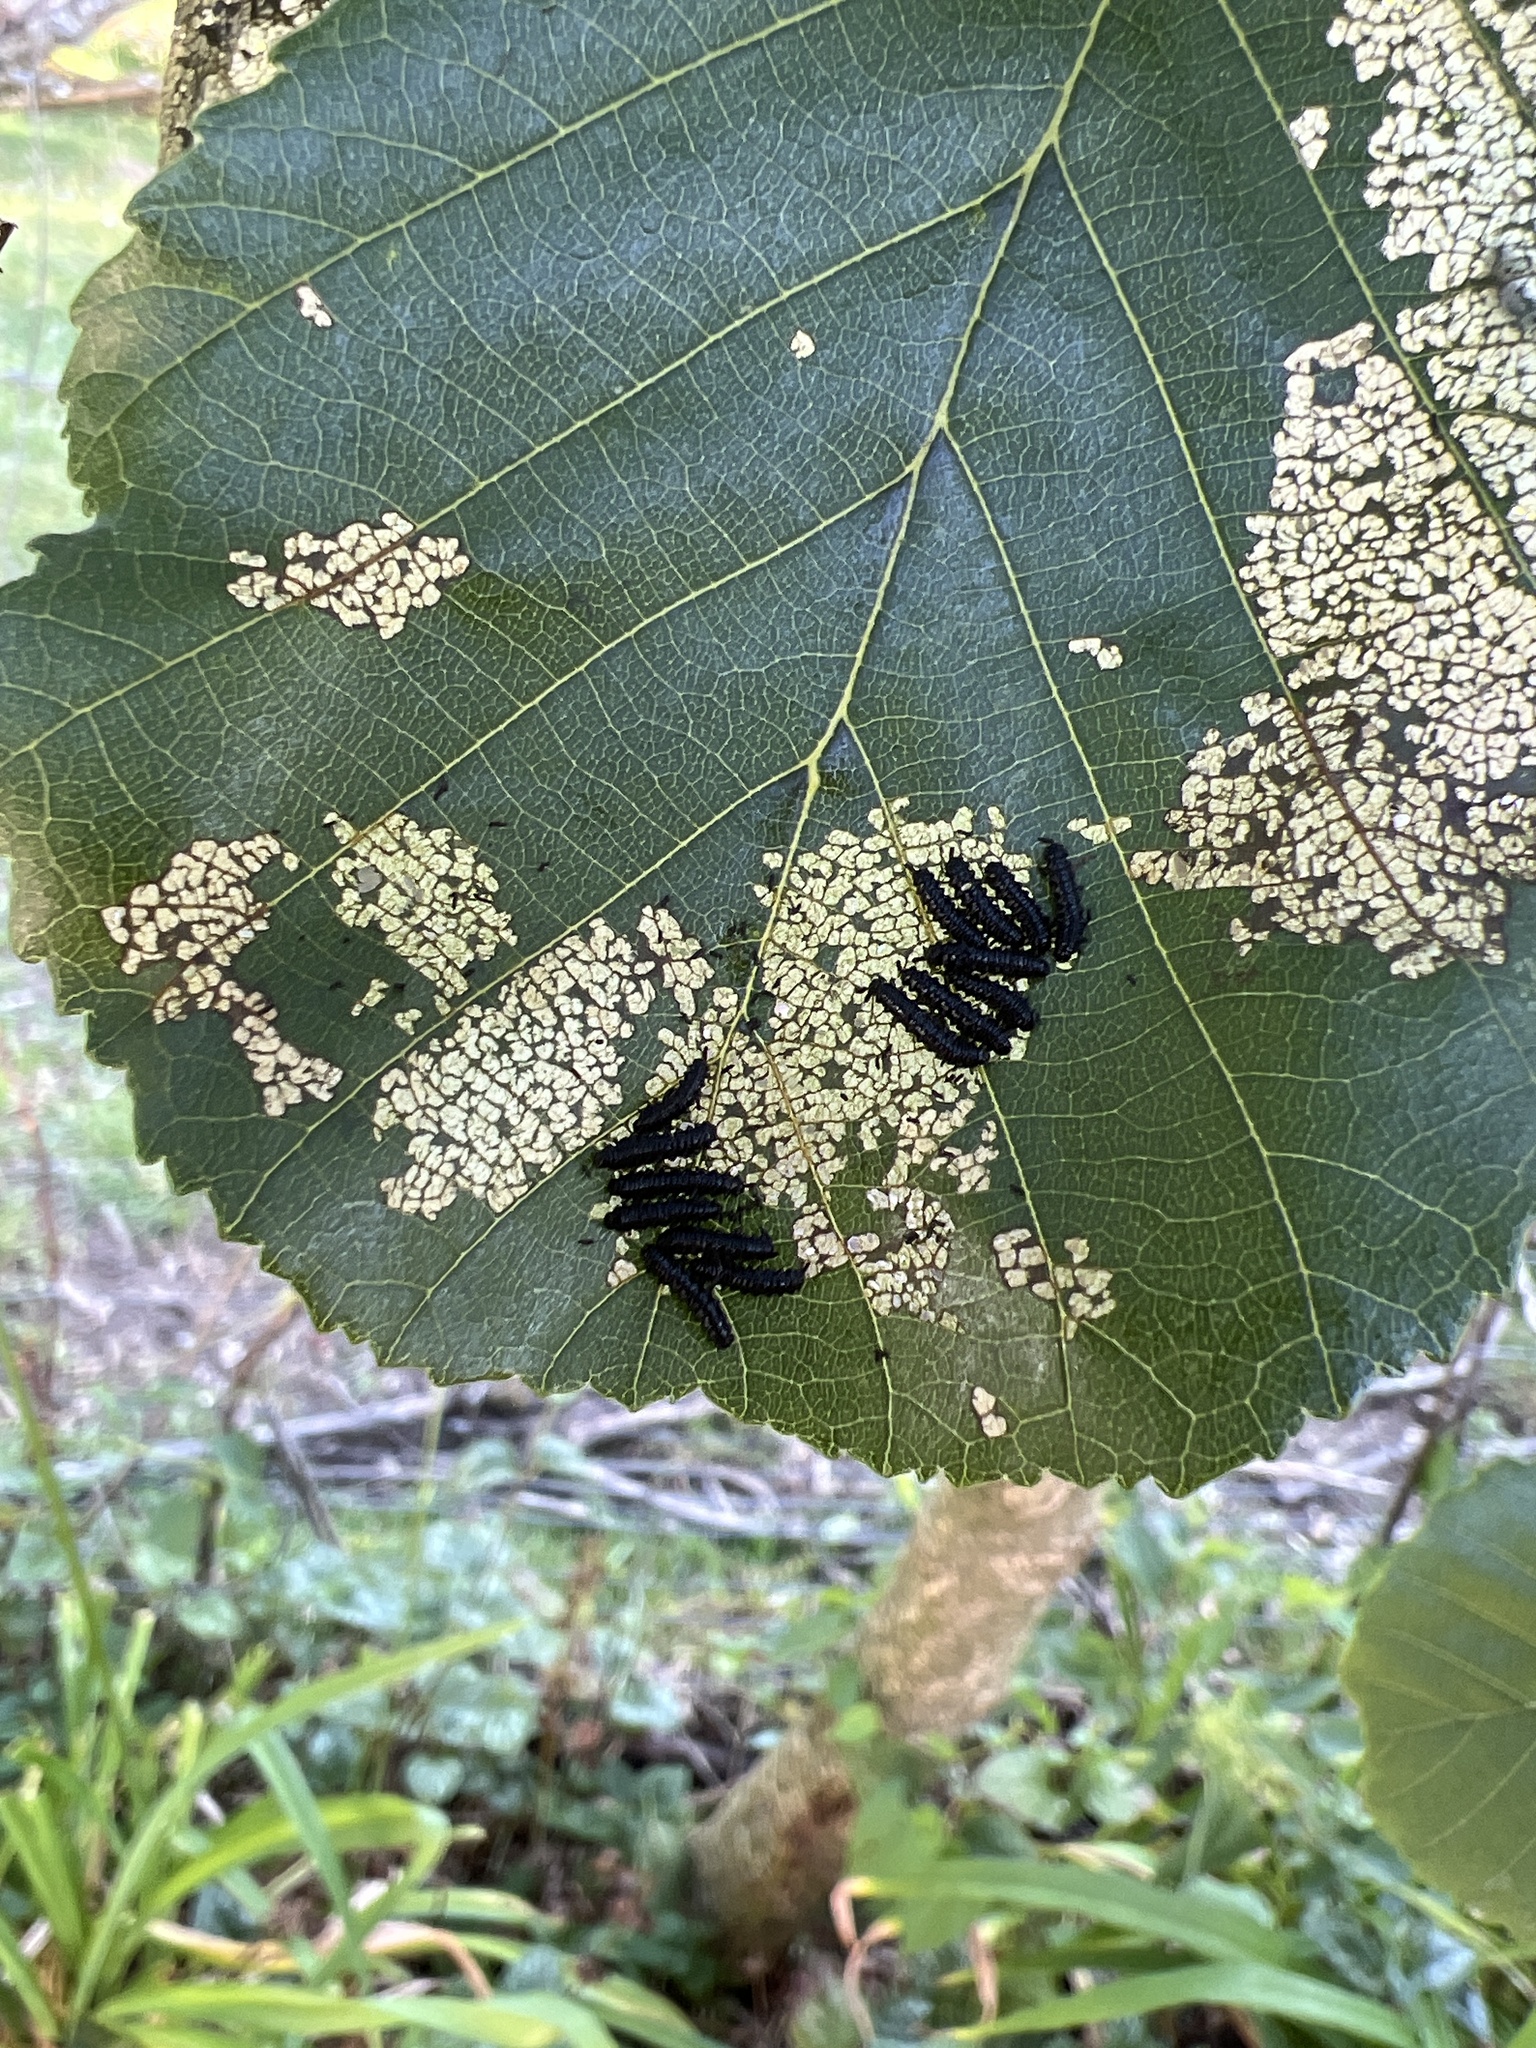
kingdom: Animalia
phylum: Arthropoda
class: Insecta
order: Coleoptera
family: Chrysomelidae
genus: Agelastica
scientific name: Agelastica alni
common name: Alder leaf beetle
